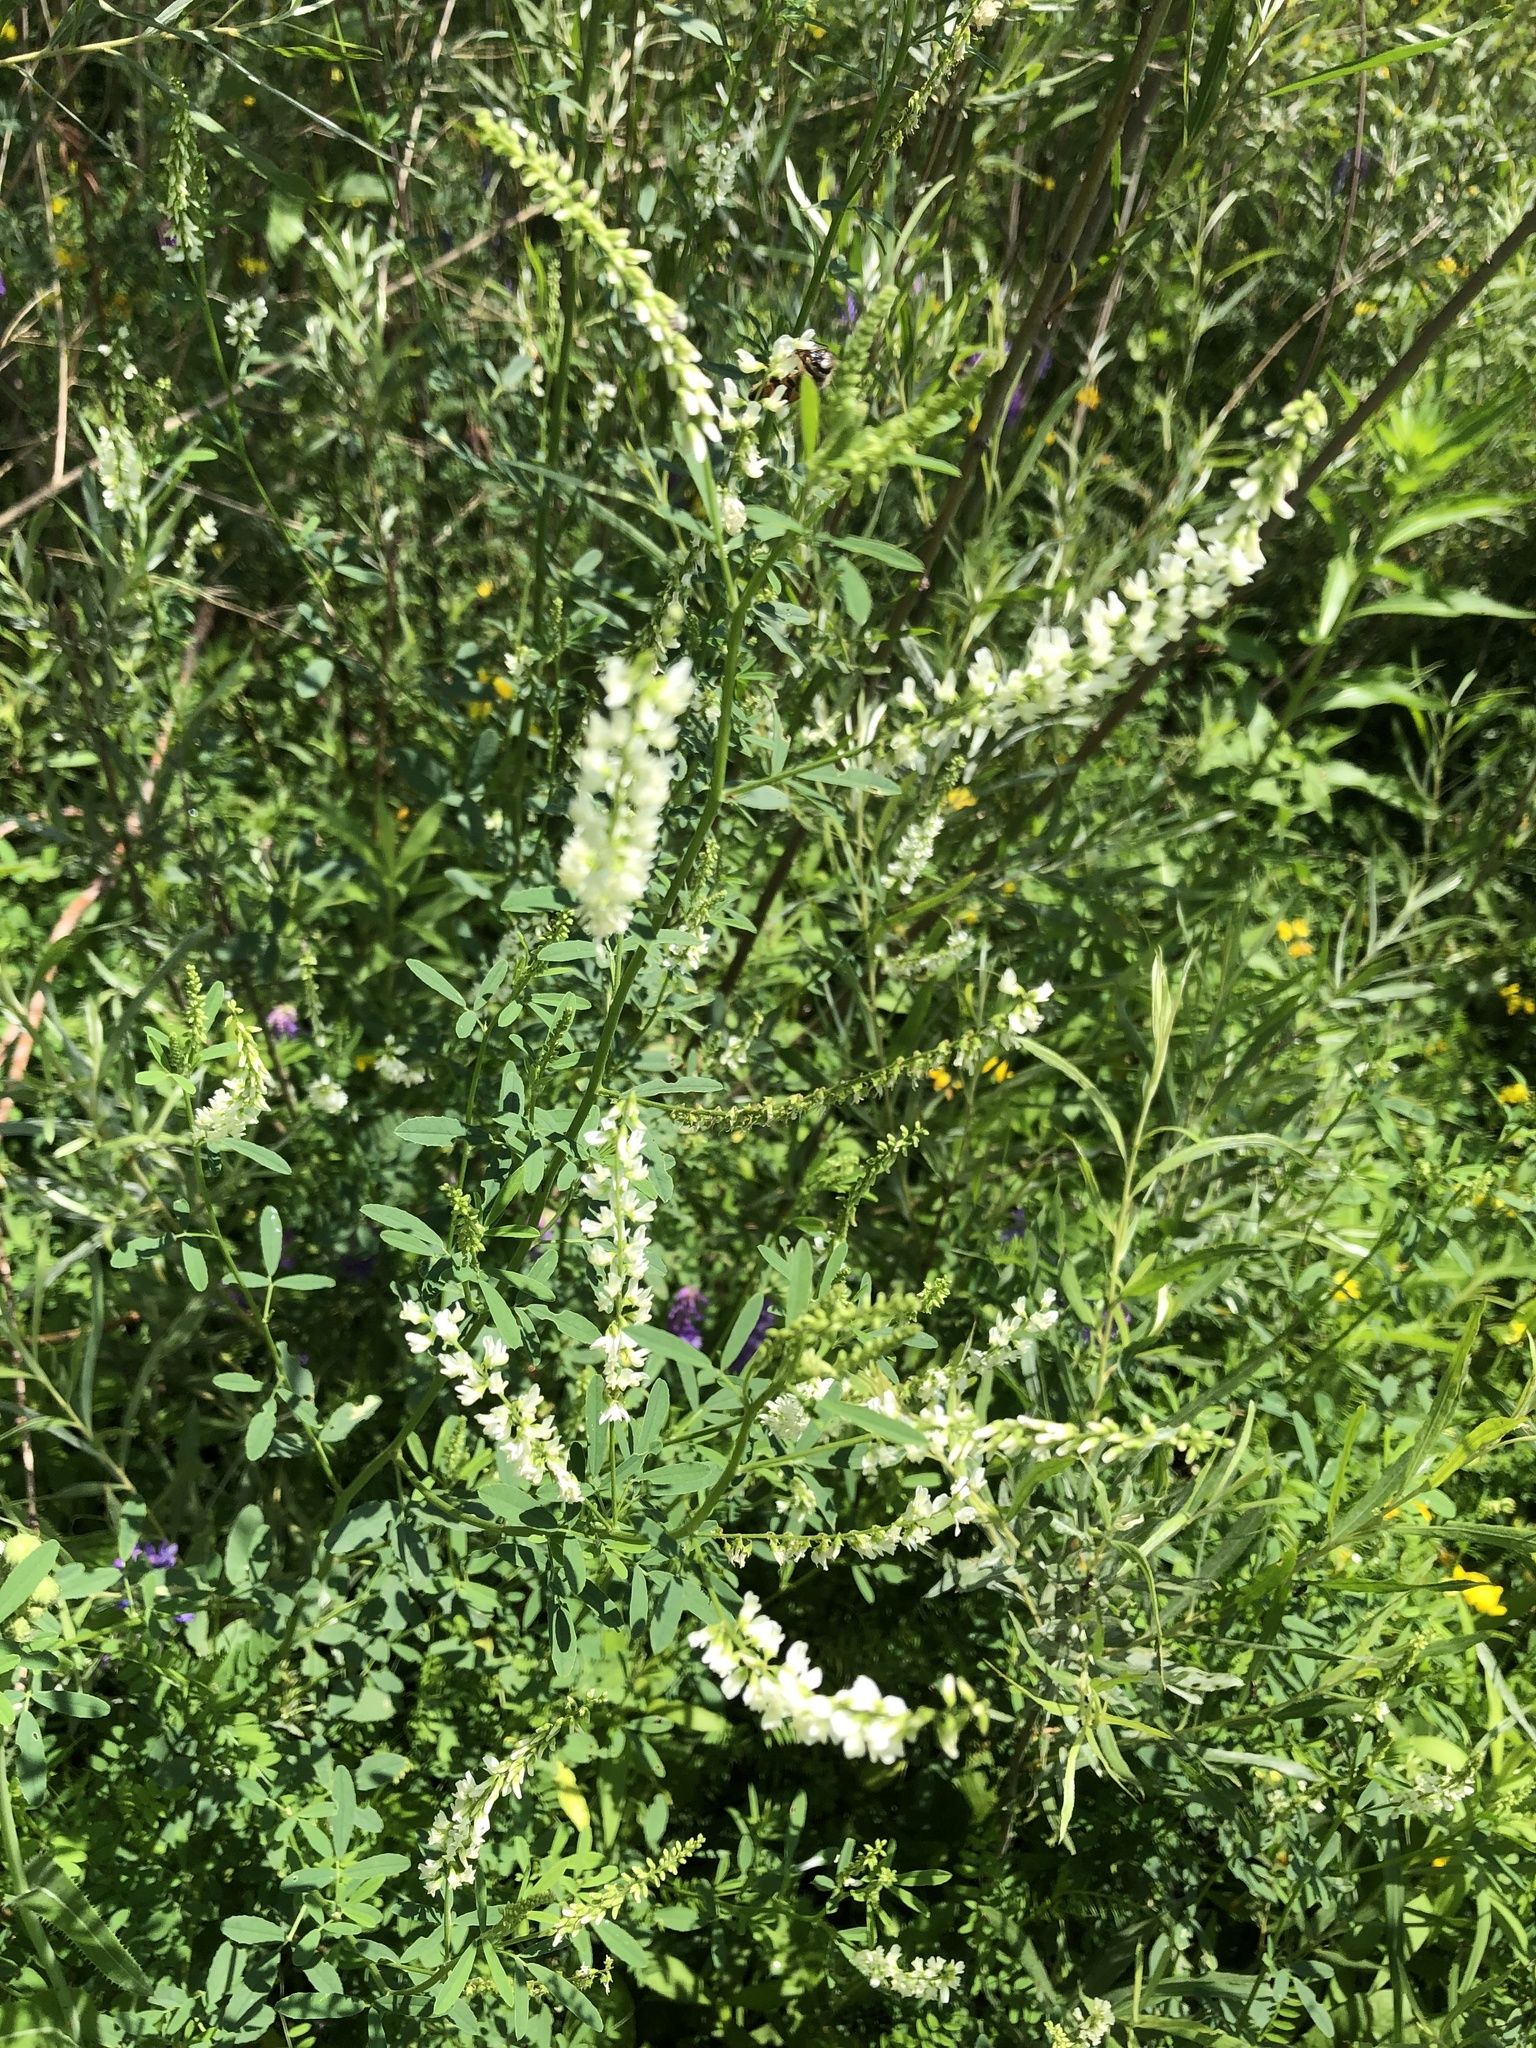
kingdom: Plantae
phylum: Tracheophyta
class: Magnoliopsida
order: Fabales
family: Fabaceae
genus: Melilotus
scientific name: Melilotus albus
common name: White melilot
